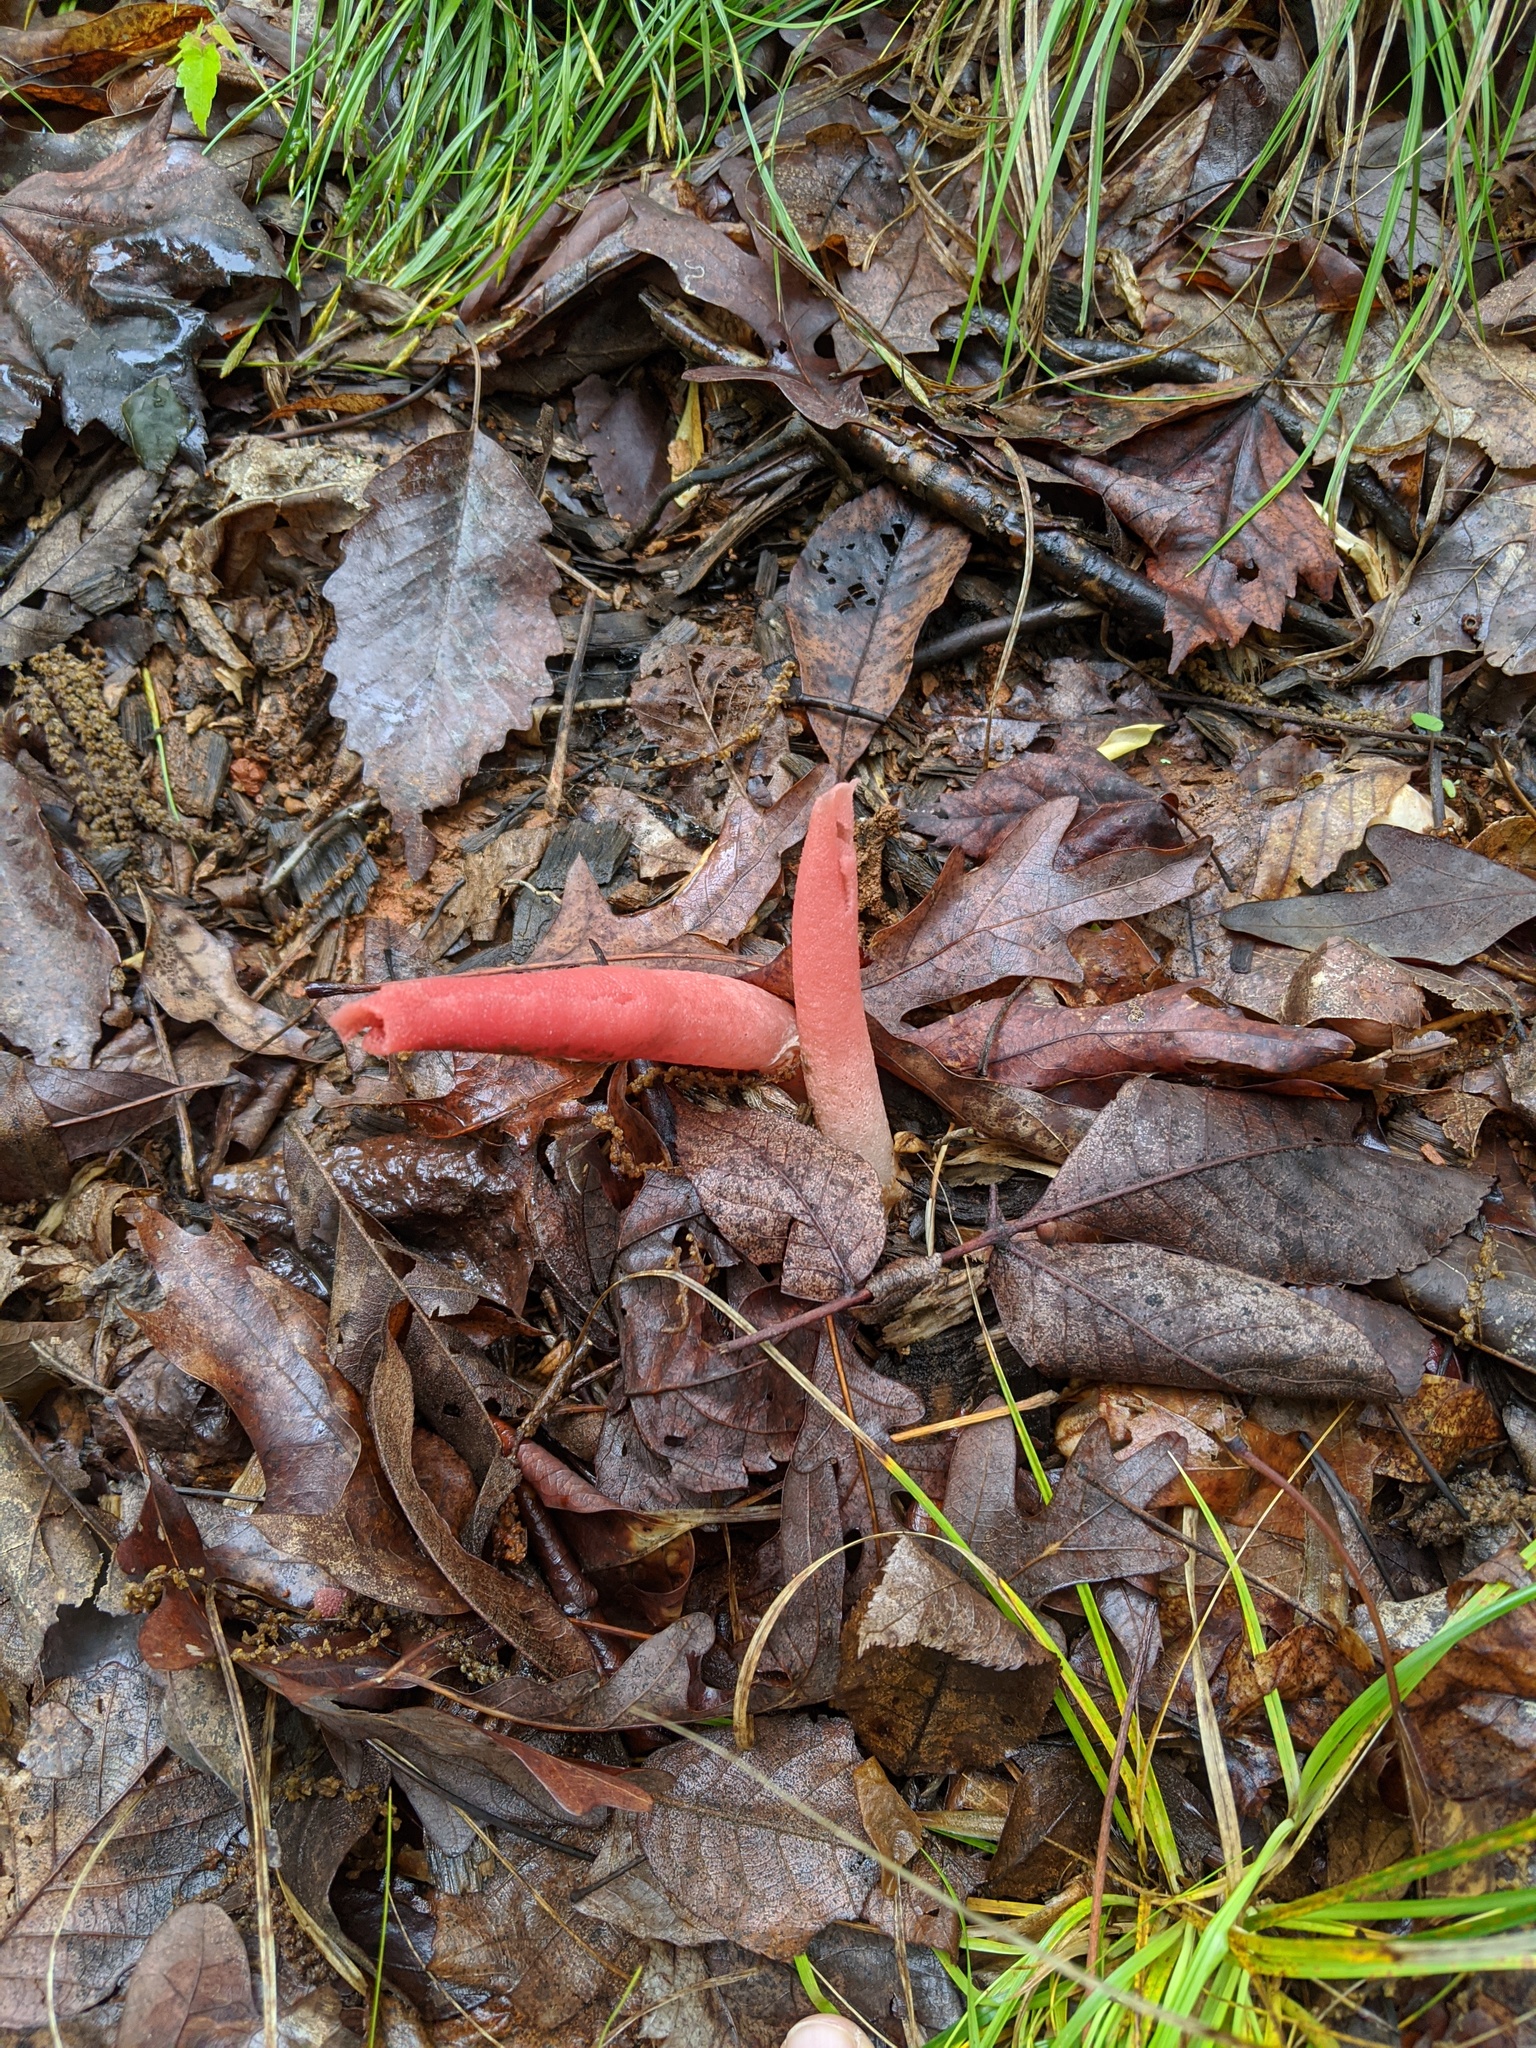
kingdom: Fungi
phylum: Basidiomycota
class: Agaricomycetes
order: Phallales
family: Phallaceae
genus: Mutinus
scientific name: Mutinus elegans
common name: Devil's dipstick
